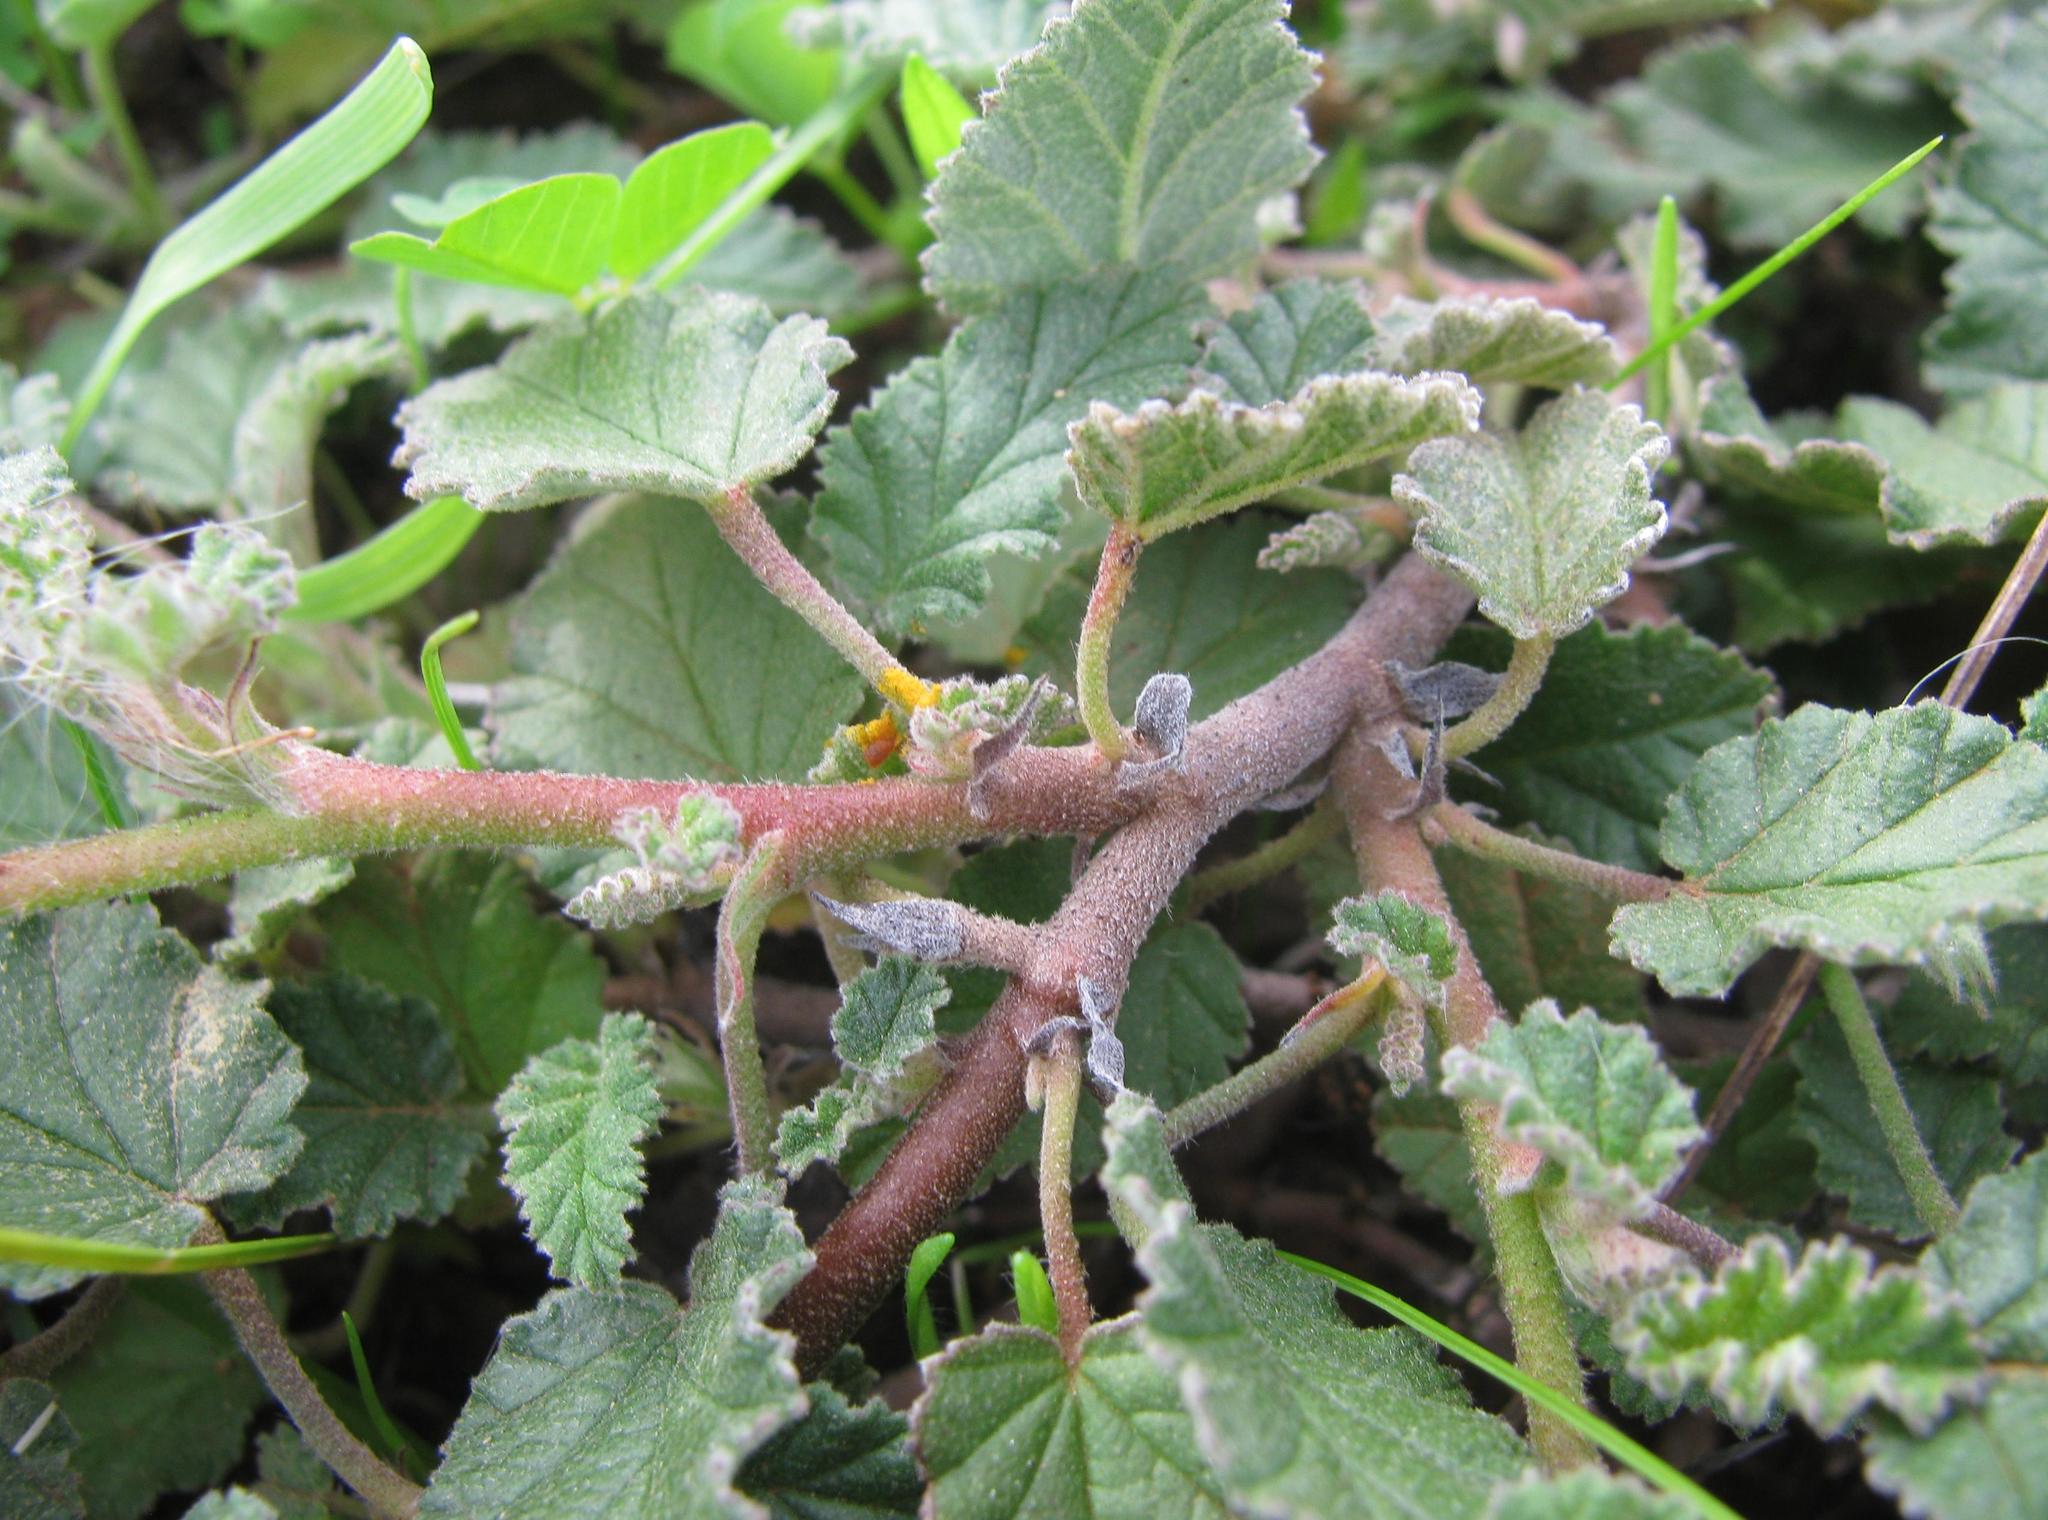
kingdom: Plantae
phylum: Tracheophyta
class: Magnoliopsida
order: Malvales
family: Malvaceae
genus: Hermannia
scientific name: Hermannia althaeoides
